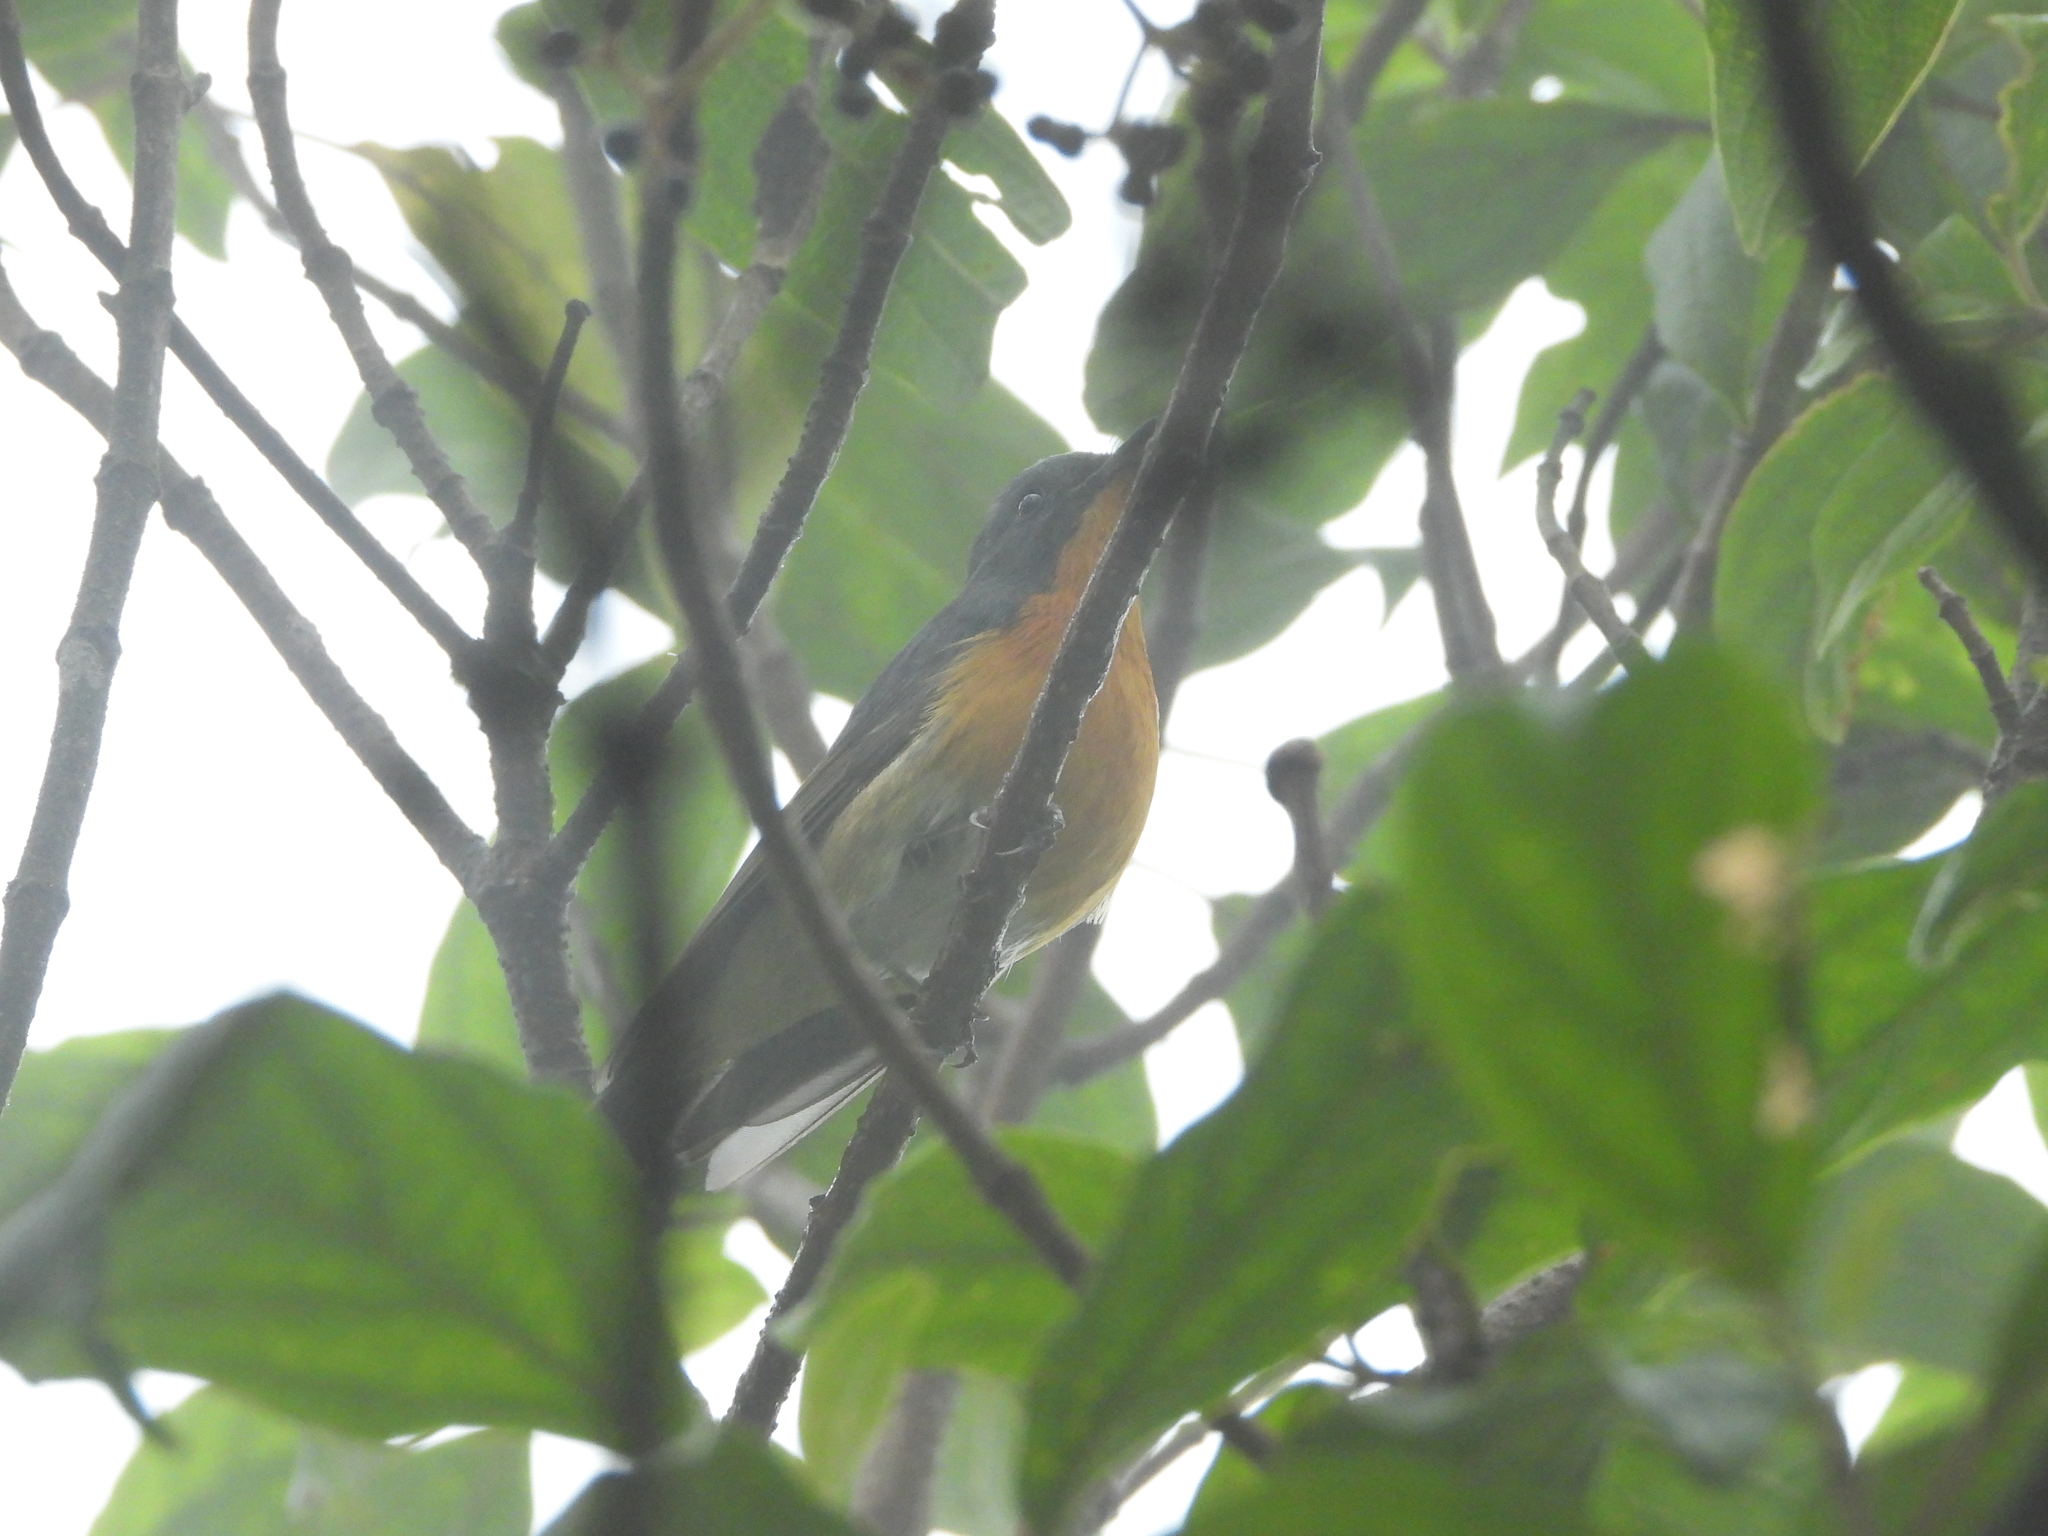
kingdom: Animalia
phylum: Chordata
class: Aves
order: Passeriformes
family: Muscicapidae
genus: Ficedula
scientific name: Ficedula erithacus
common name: Slaty-backed flycatcher
